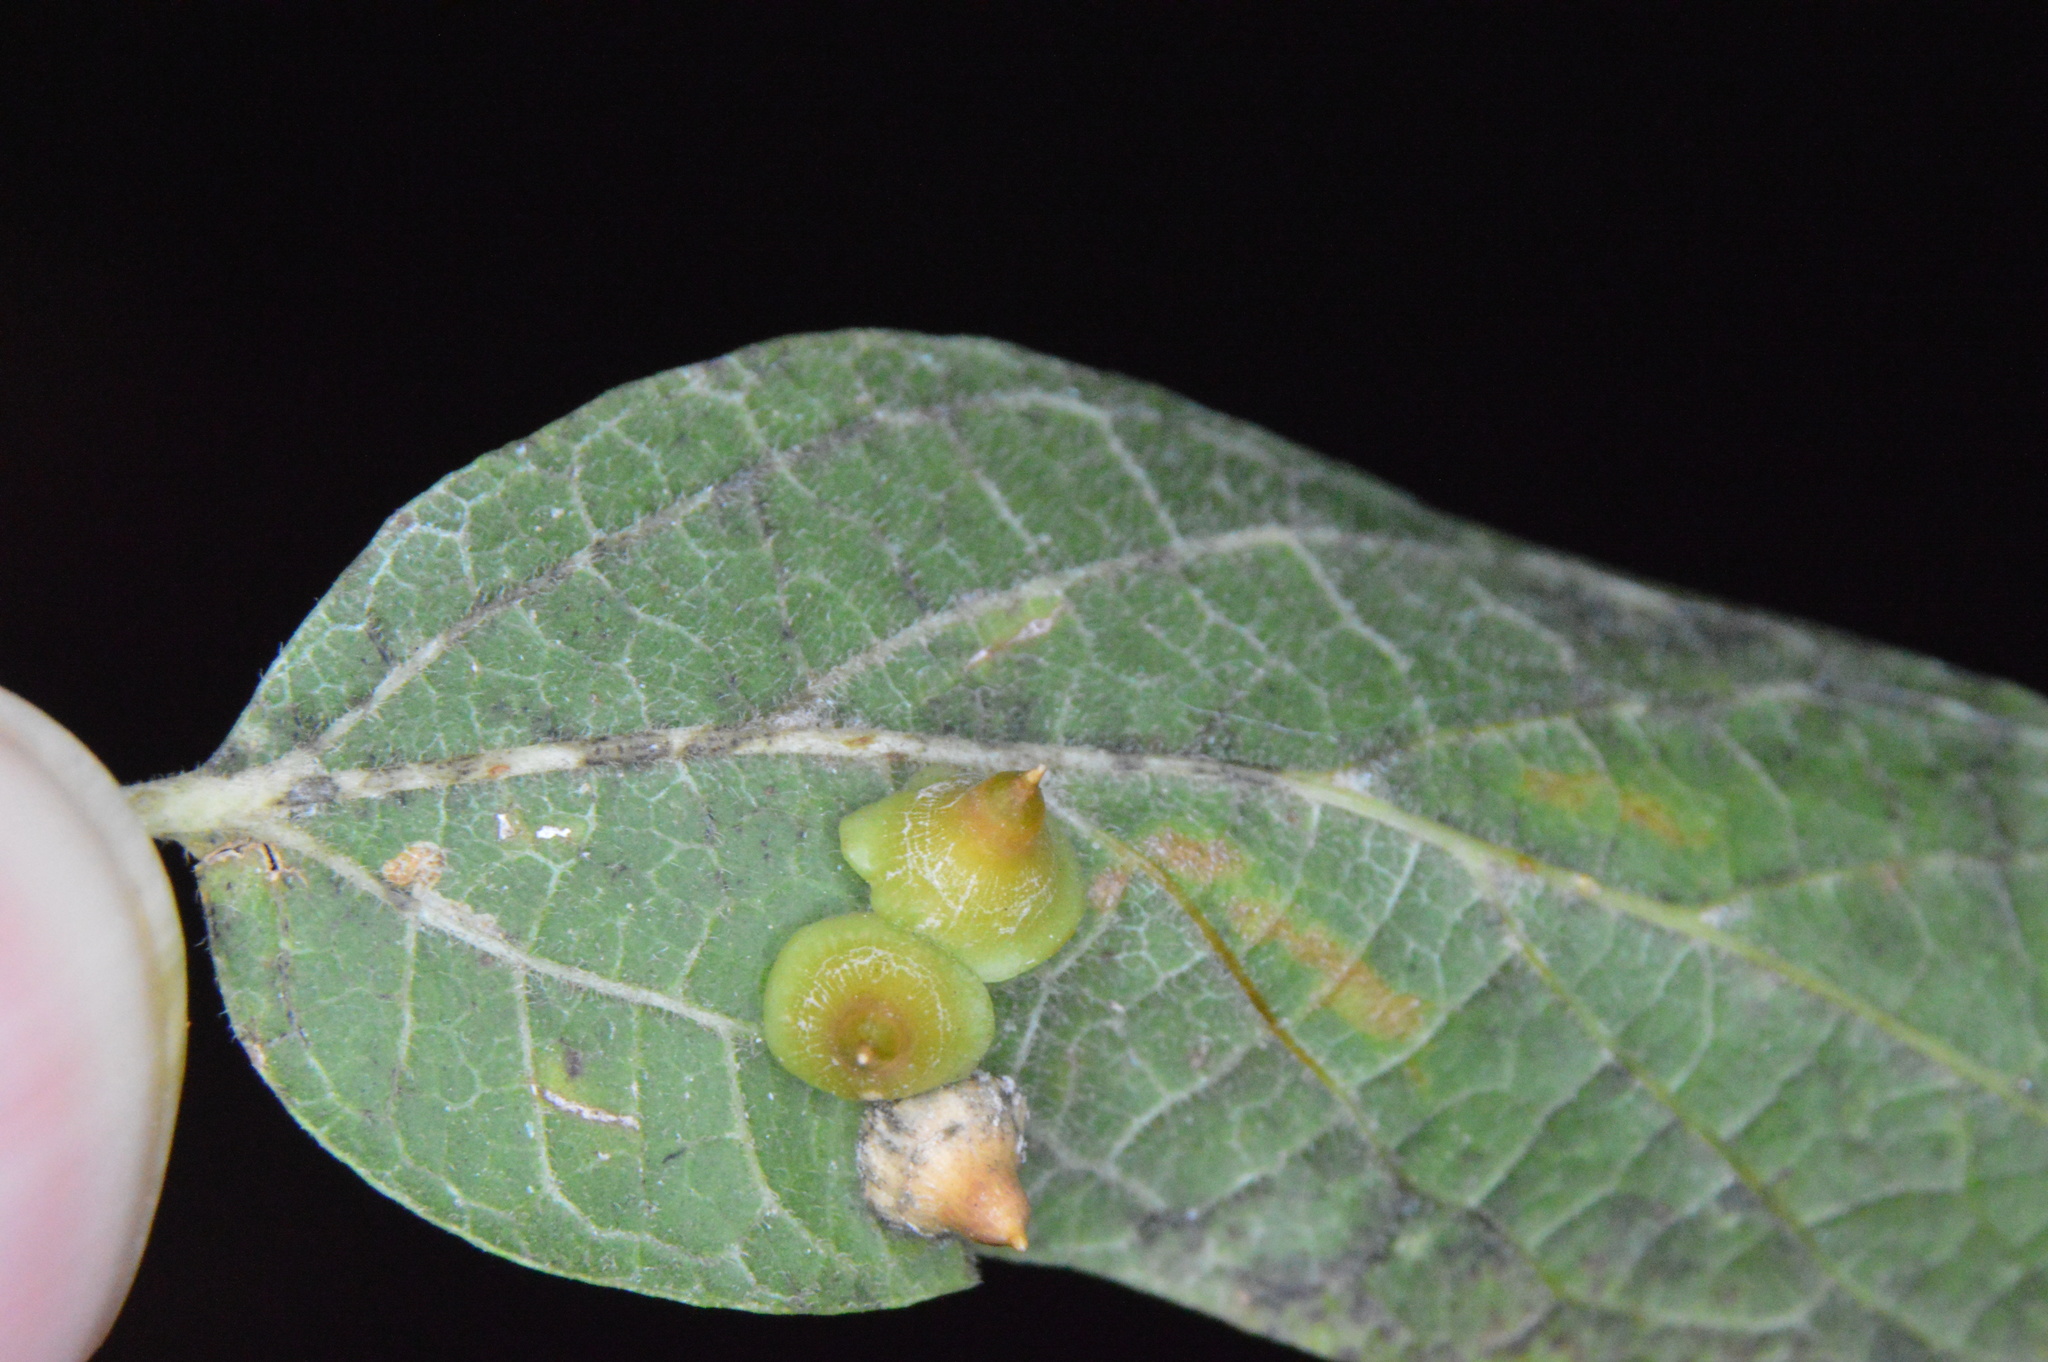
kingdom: Animalia
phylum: Arthropoda
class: Insecta
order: Diptera
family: Cecidomyiidae
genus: Celticecis
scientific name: Celticecis spiniformis
